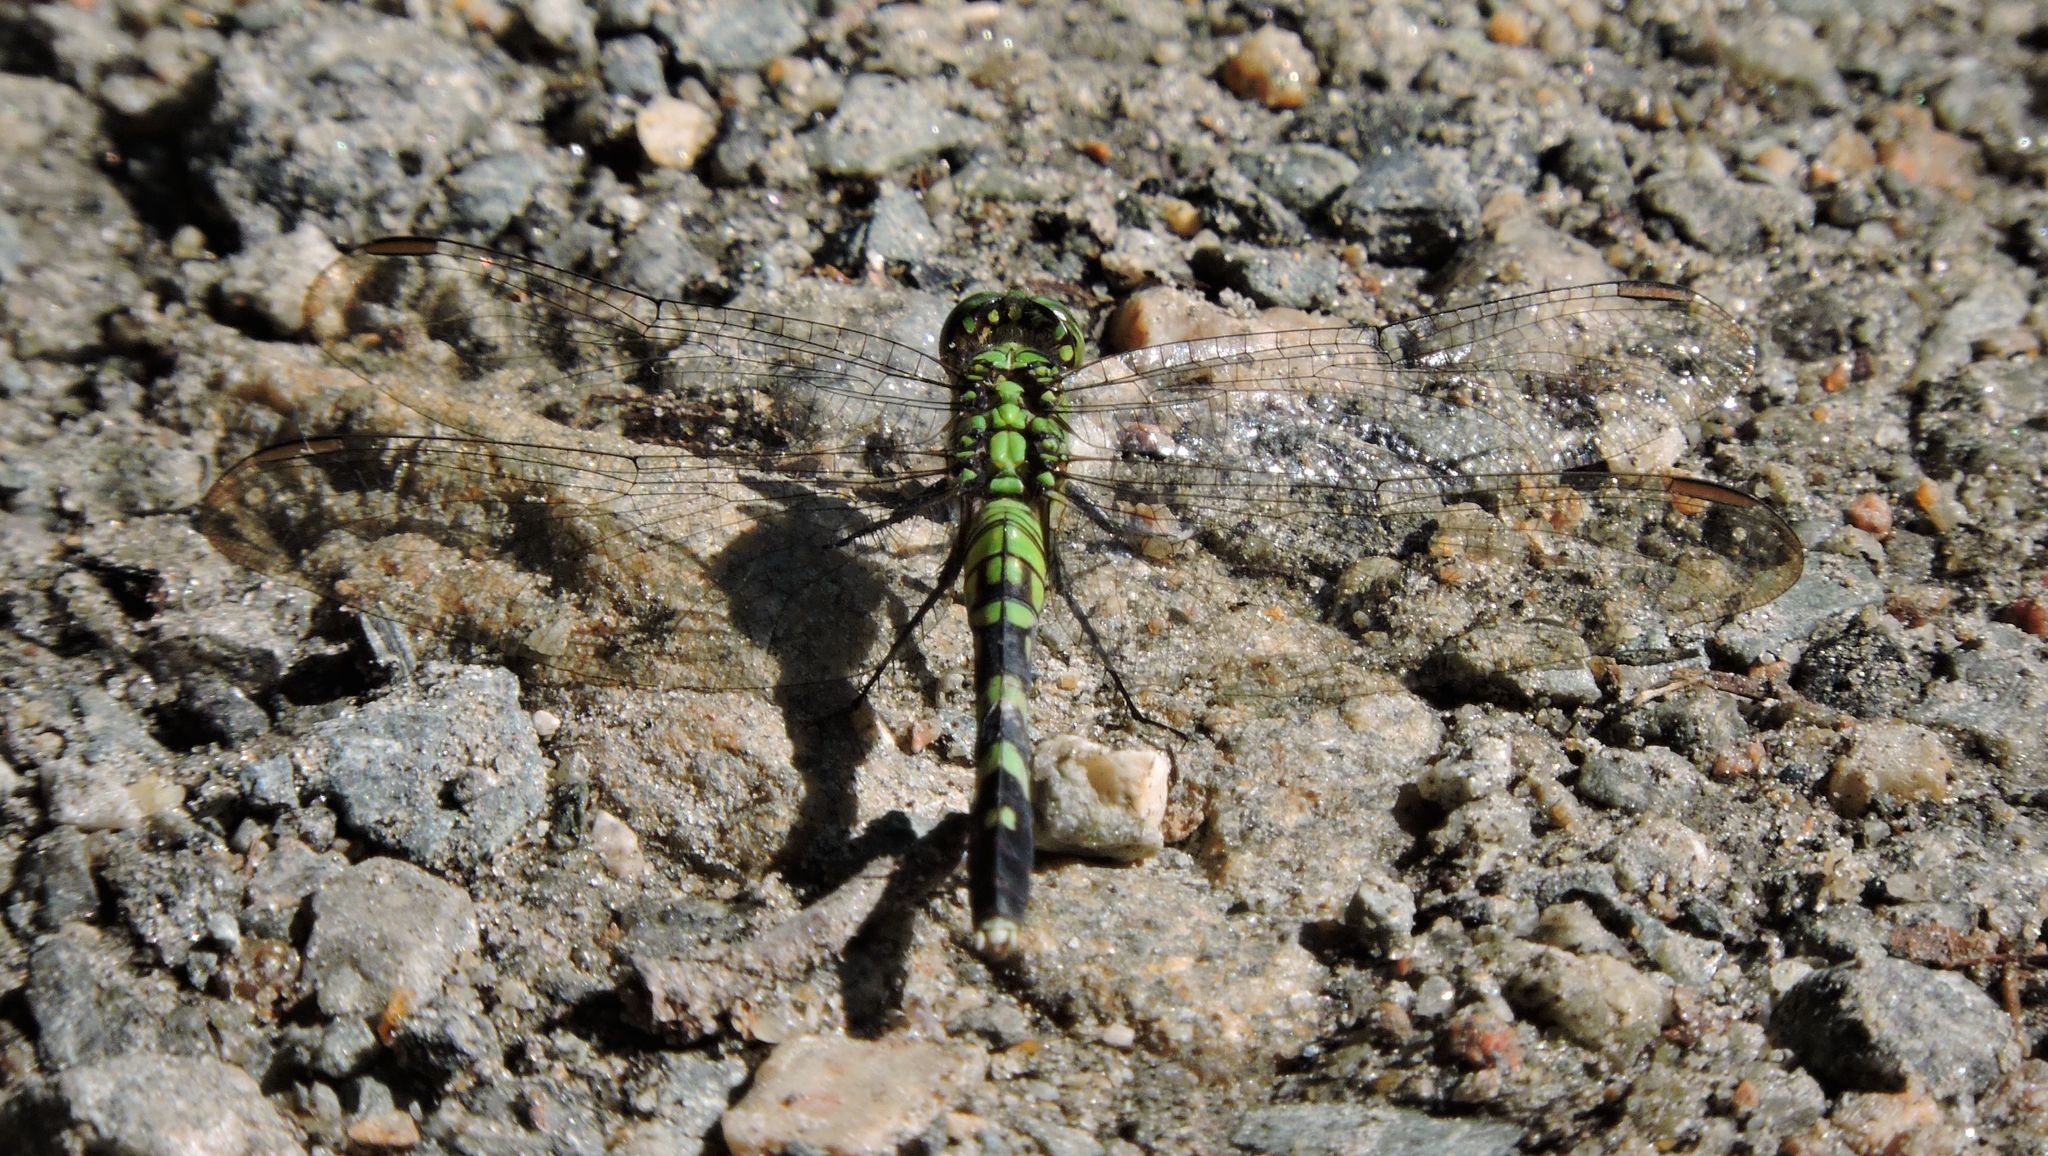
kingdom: Animalia
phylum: Arthropoda
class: Insecta
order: Odonata
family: Libellulidae
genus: Erythemis
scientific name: Erythemis simplicicollis
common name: Eastern pondhawk
